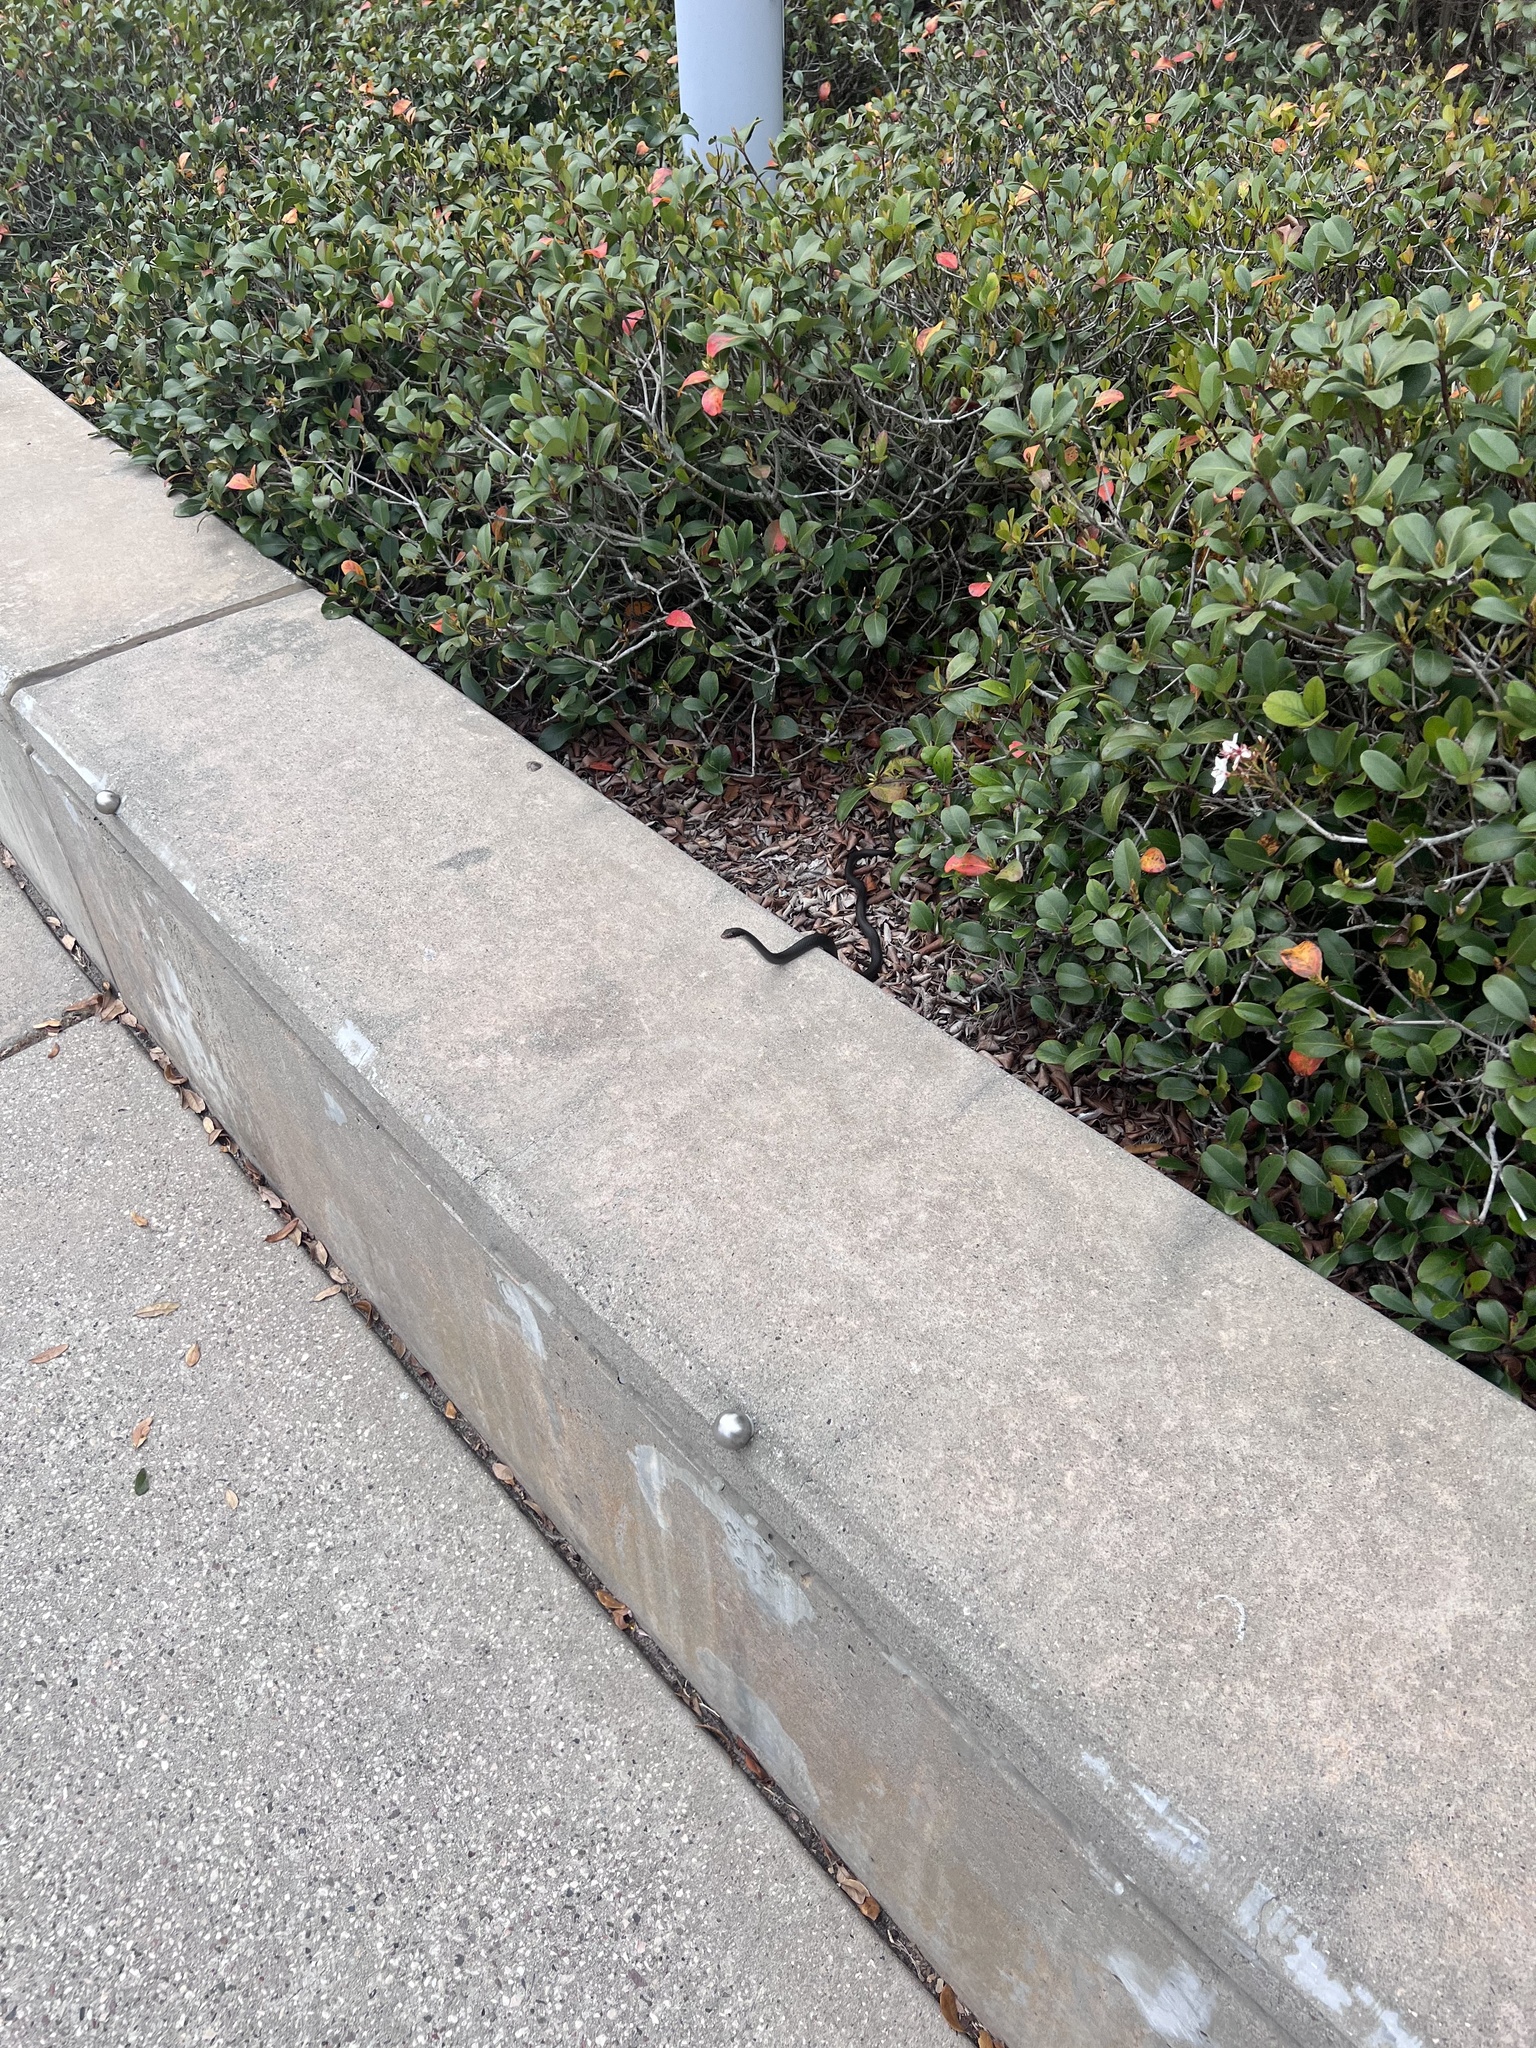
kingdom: Animalia
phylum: Chordata
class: Squamata
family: Colubridae
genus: Coluber
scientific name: Coluber constrictor
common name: Eastern racer
